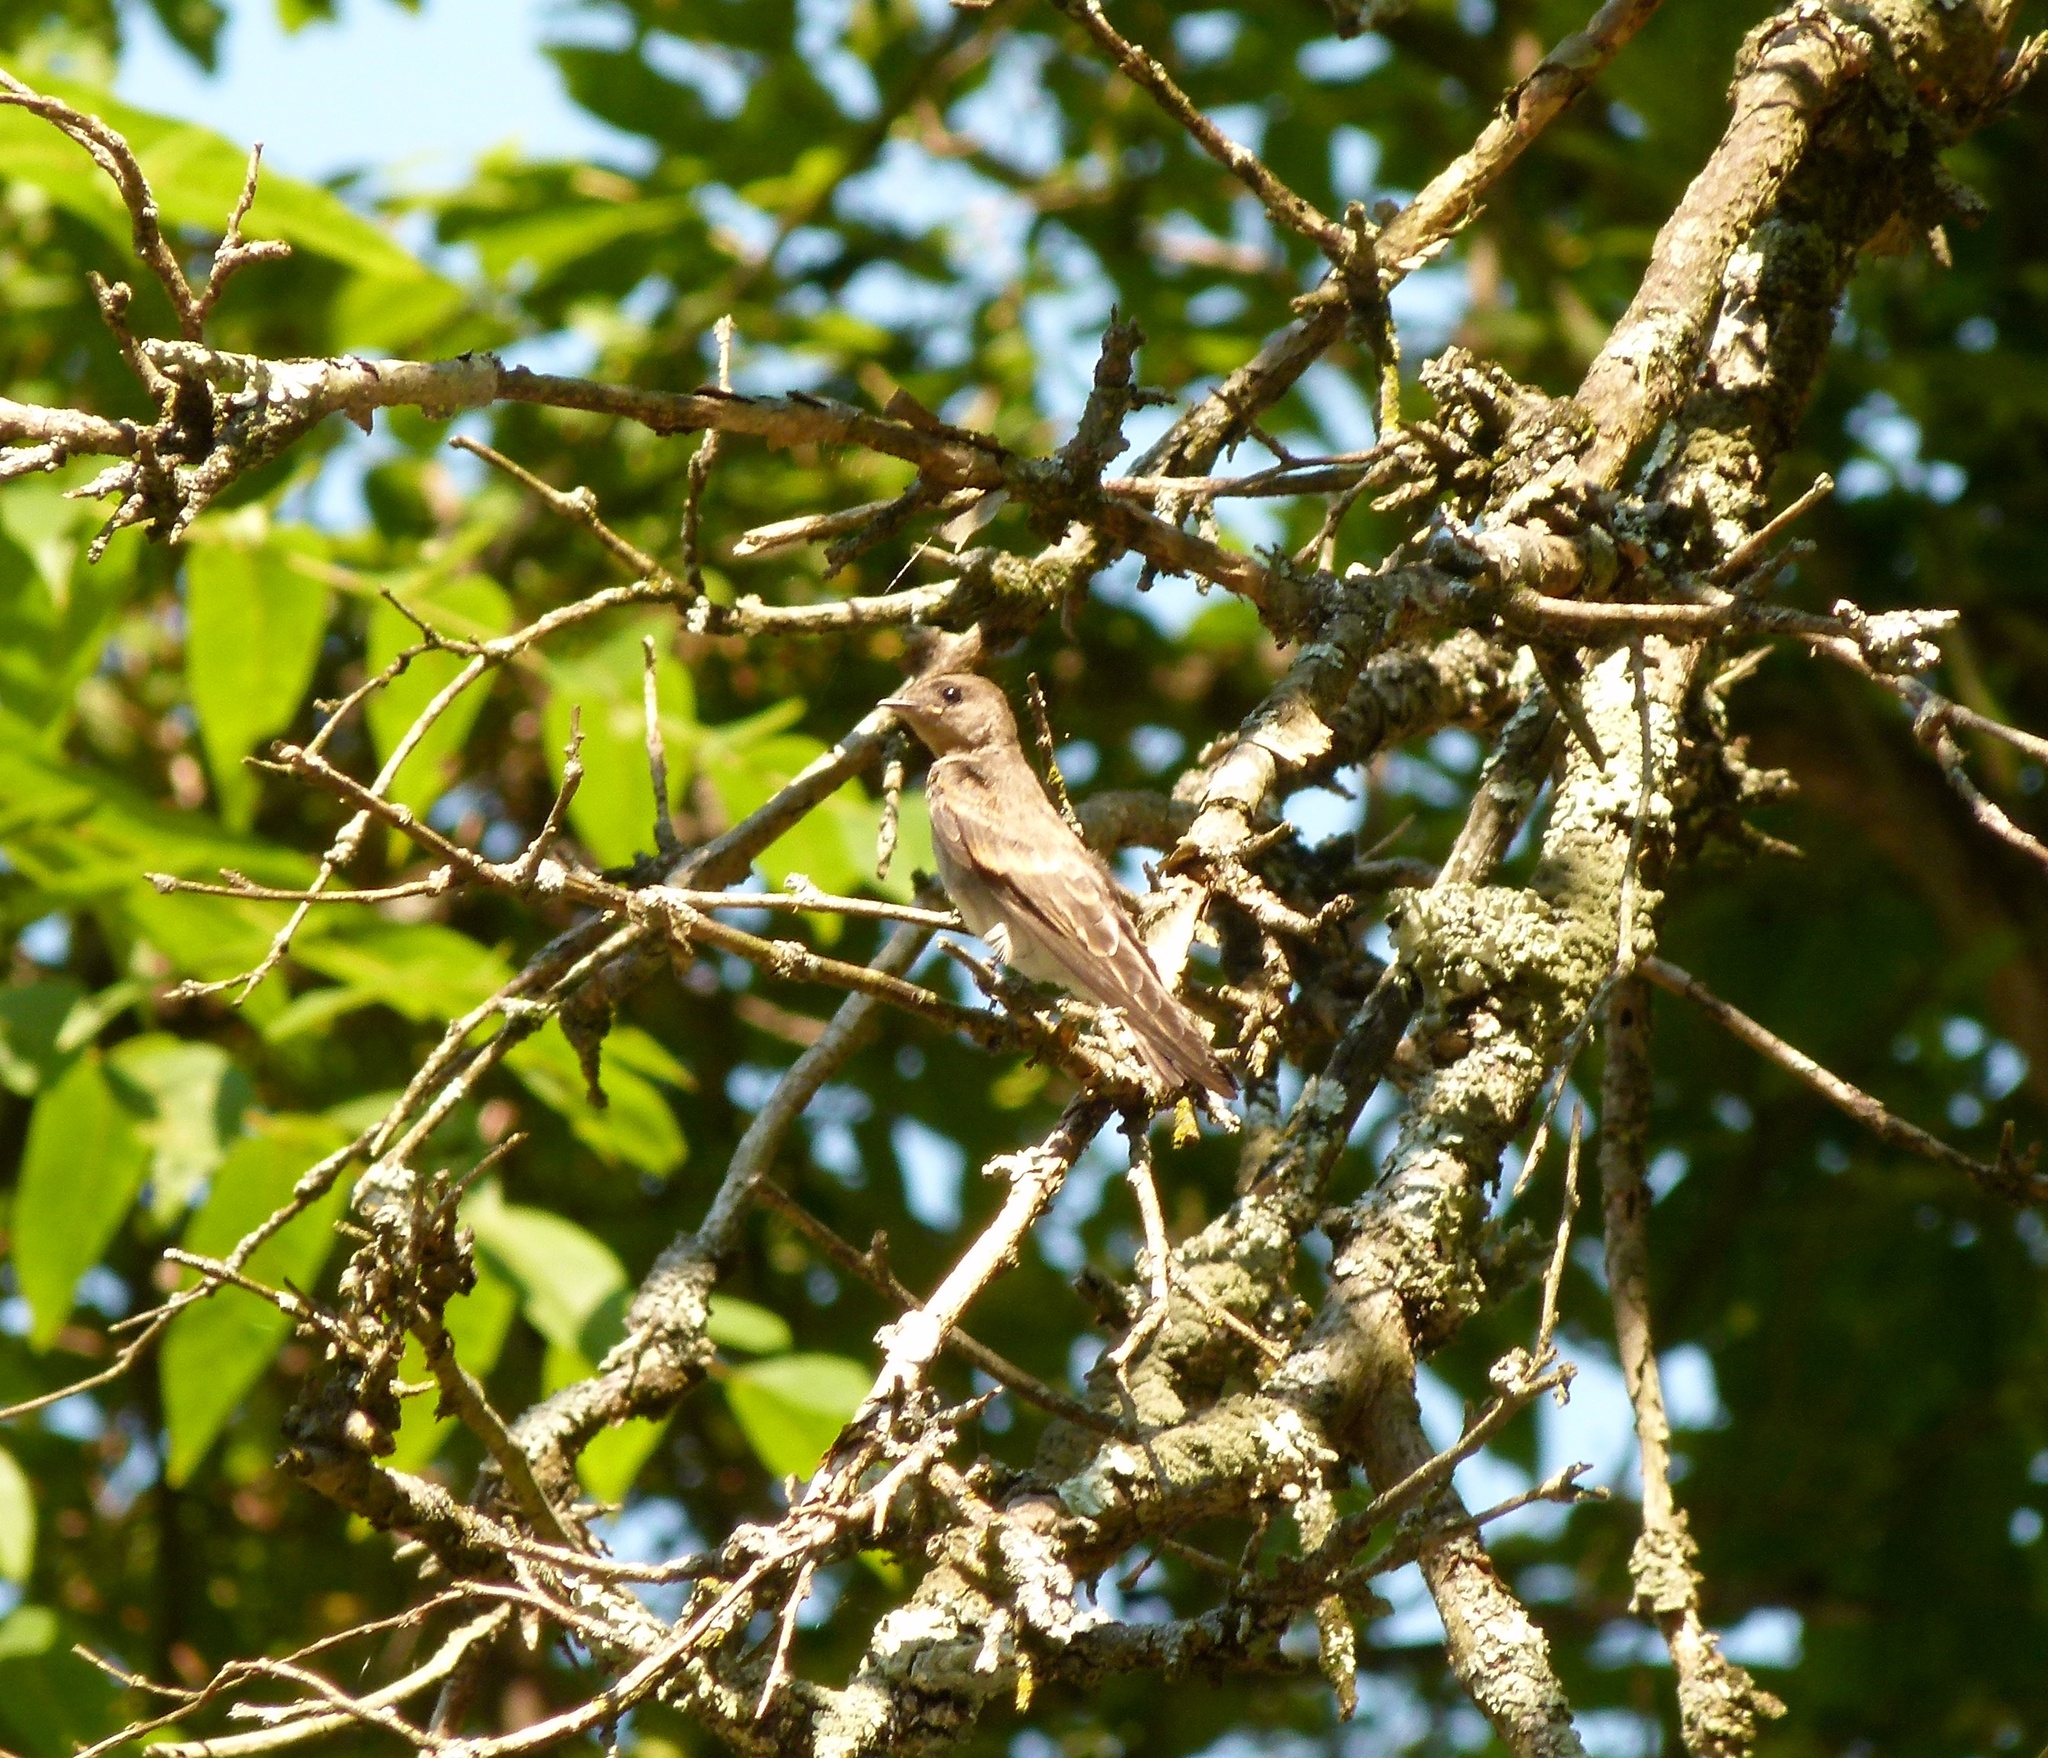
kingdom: Animalia
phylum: Chordata
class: Aves
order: Passeriformes
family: Hirundinidae
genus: Stelgidopteryx
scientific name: Stelgidopteryx serripennis
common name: Northern rough-winged swallow
